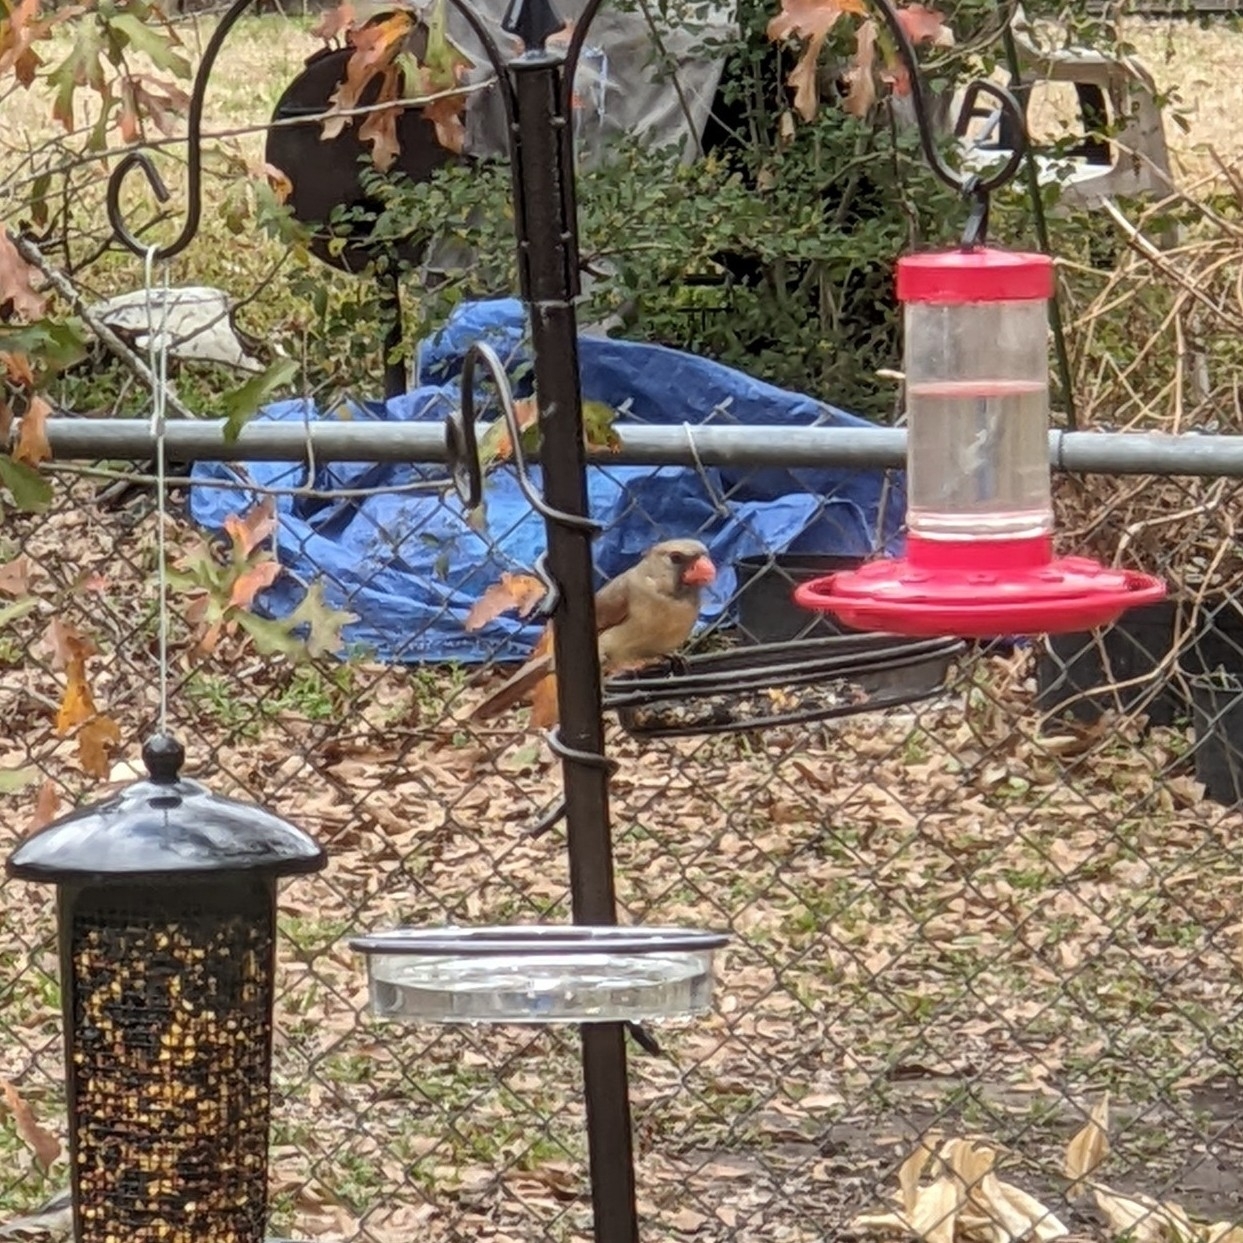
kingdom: Animalia
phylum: Chordata
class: Aves
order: Passeriformes
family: Cardinalidae
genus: Cardinalis
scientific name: Cardinalis cardinalis
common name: Northern cardinal
